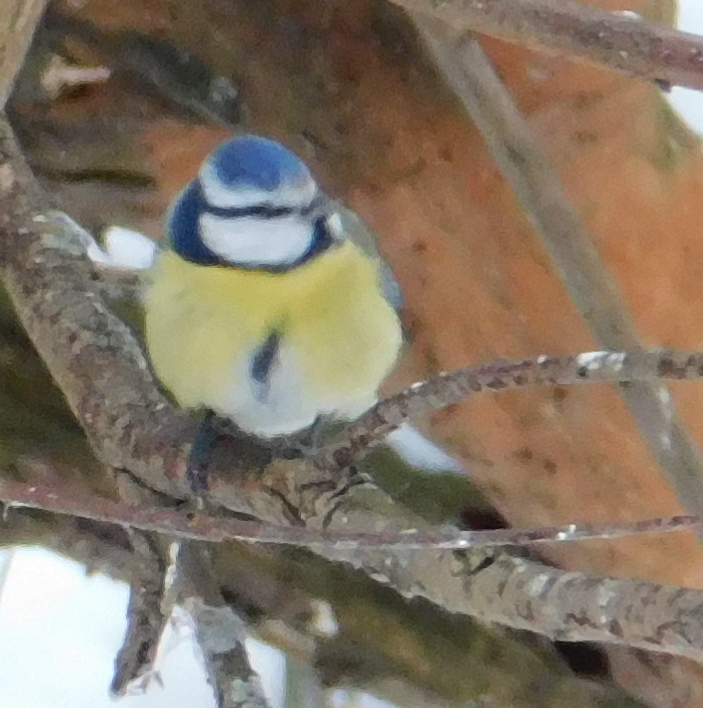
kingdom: Animalia
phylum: Chordata
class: Aves
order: Passeriformes
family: Paridae
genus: Cyanistes
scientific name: Cyanistes caeruleus
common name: Eurasian blue tit
